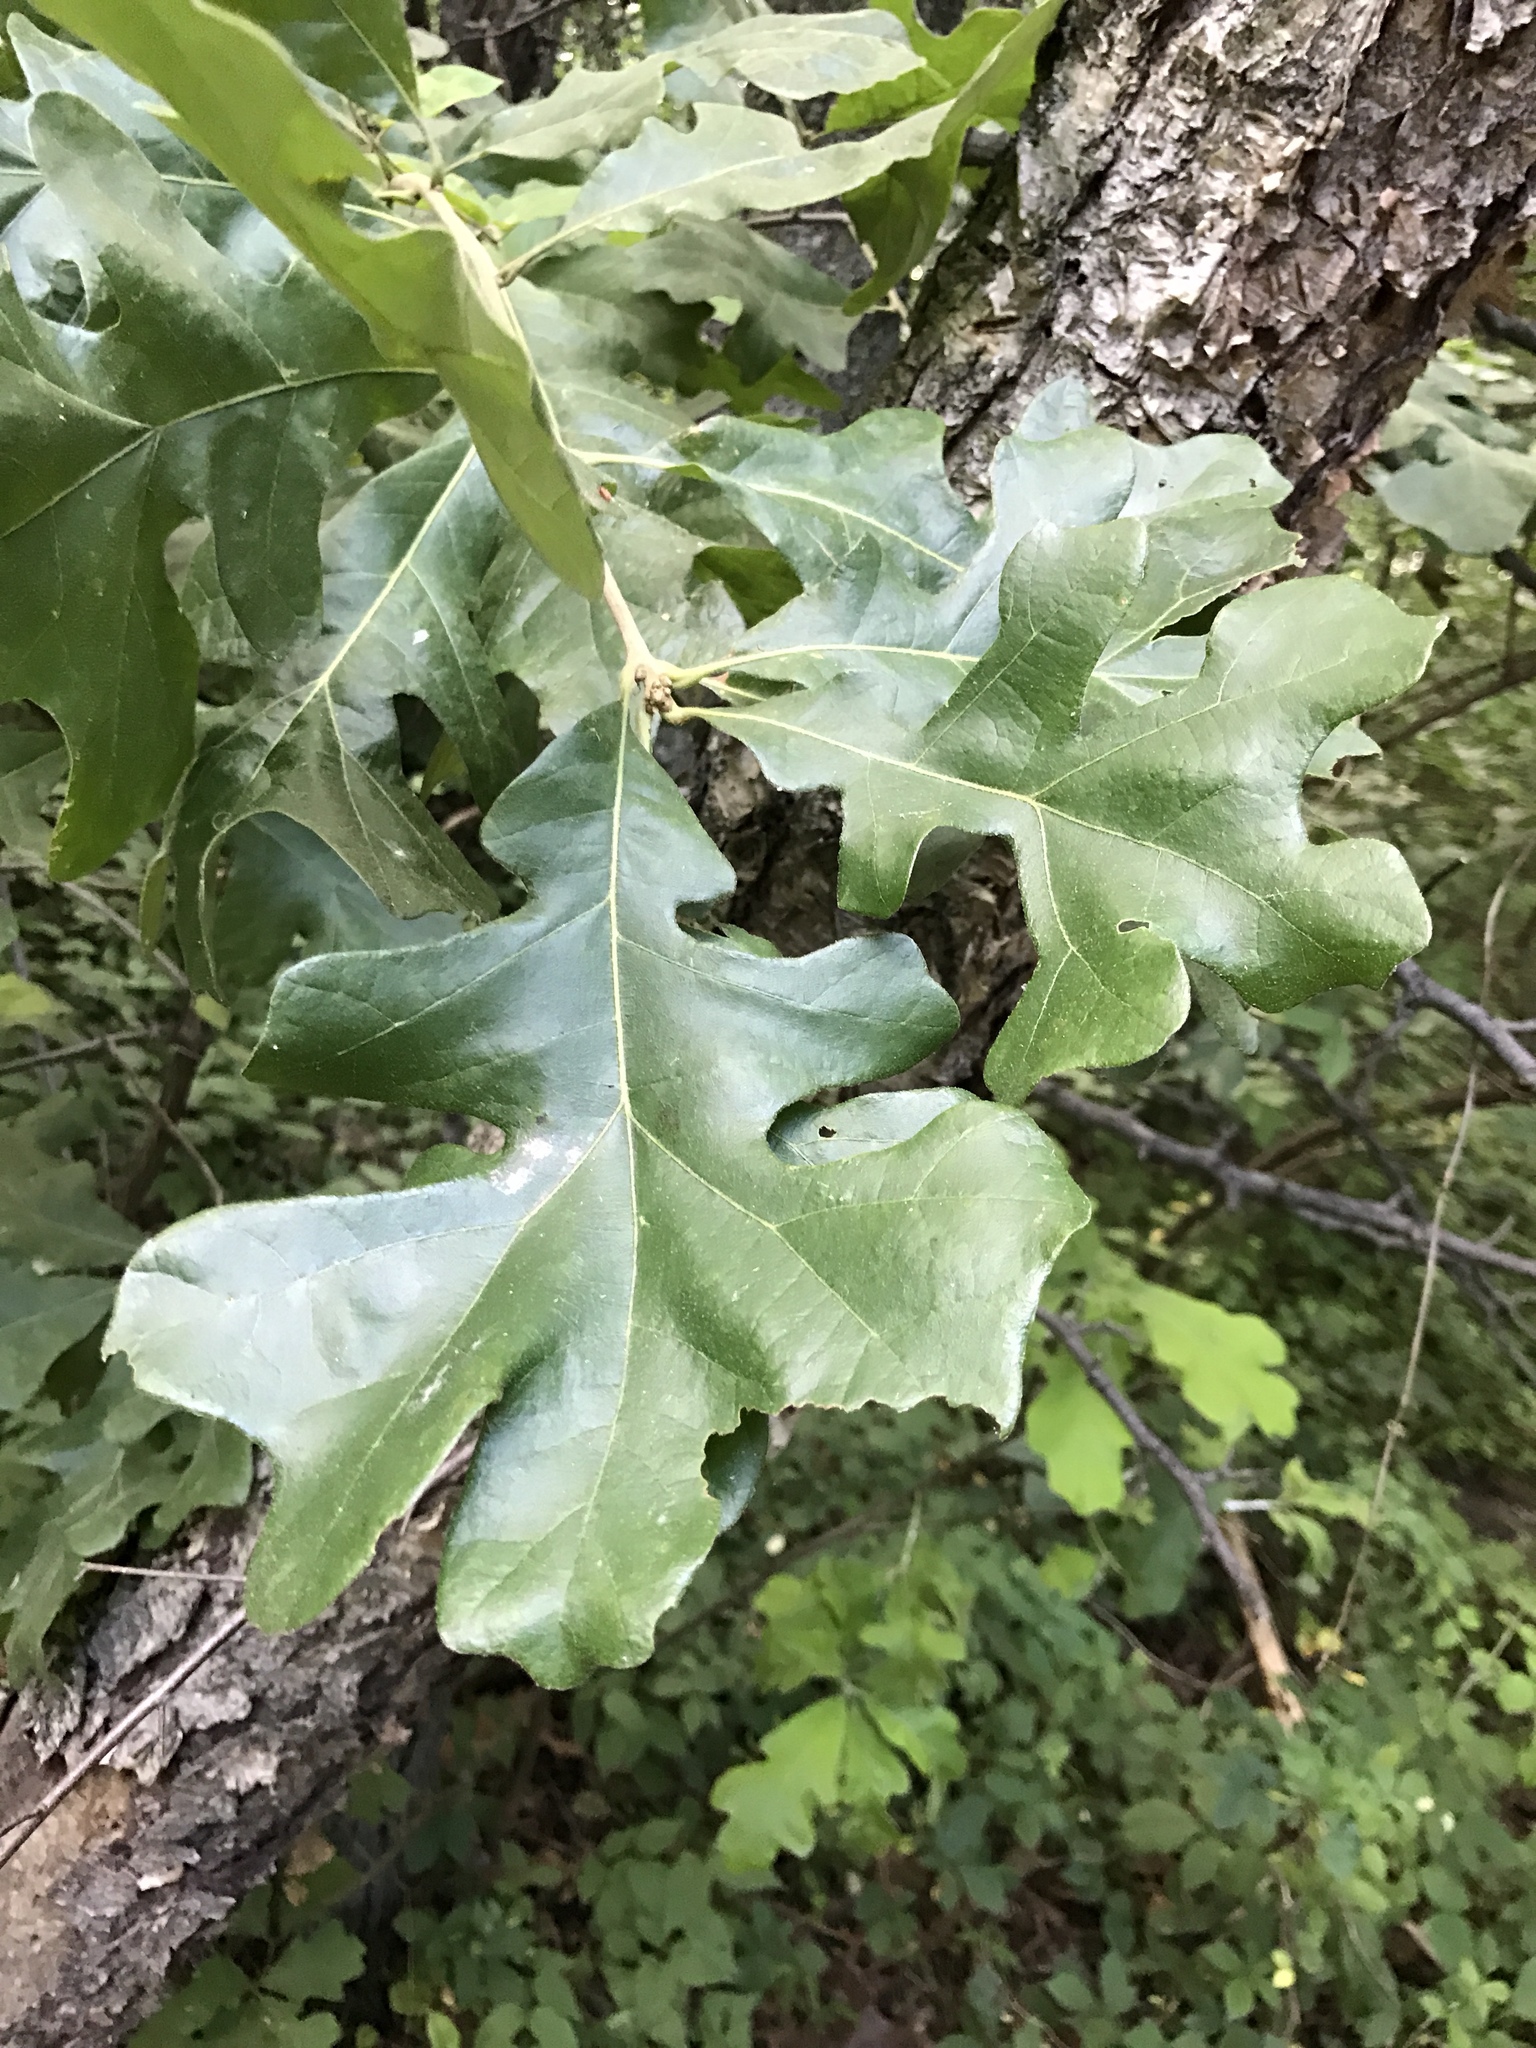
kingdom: Plantae
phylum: Tracheophyta
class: Magnoliopsida
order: Fagales
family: Fagaceae
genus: Quercus
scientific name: Quercus stellata
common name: Post oak
